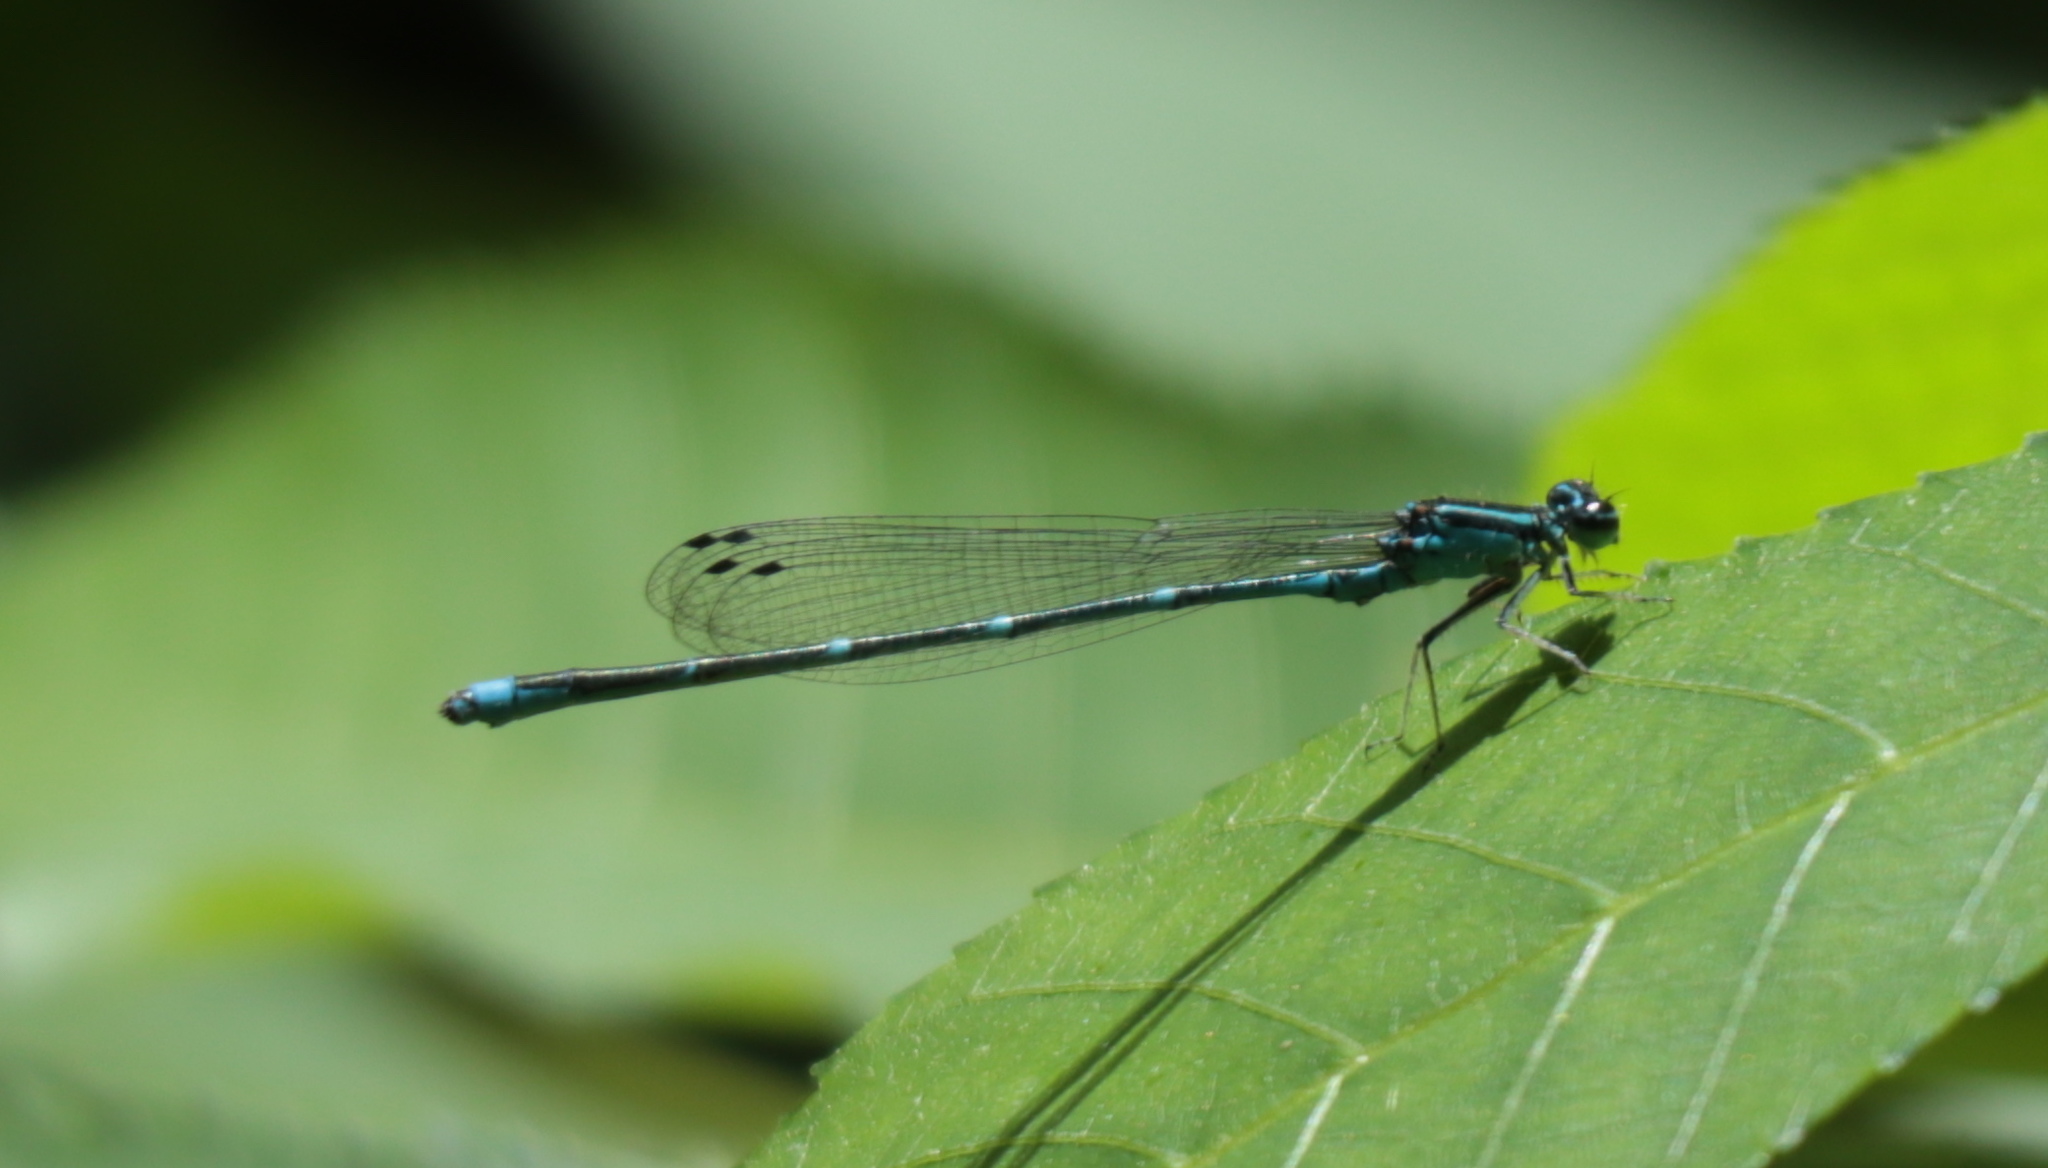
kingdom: Animalia
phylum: Arthropoda
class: Insecta
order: Odonata
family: Coenagrionidae
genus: Enallagma
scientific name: Enallagma exsulans
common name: Stream bluet
